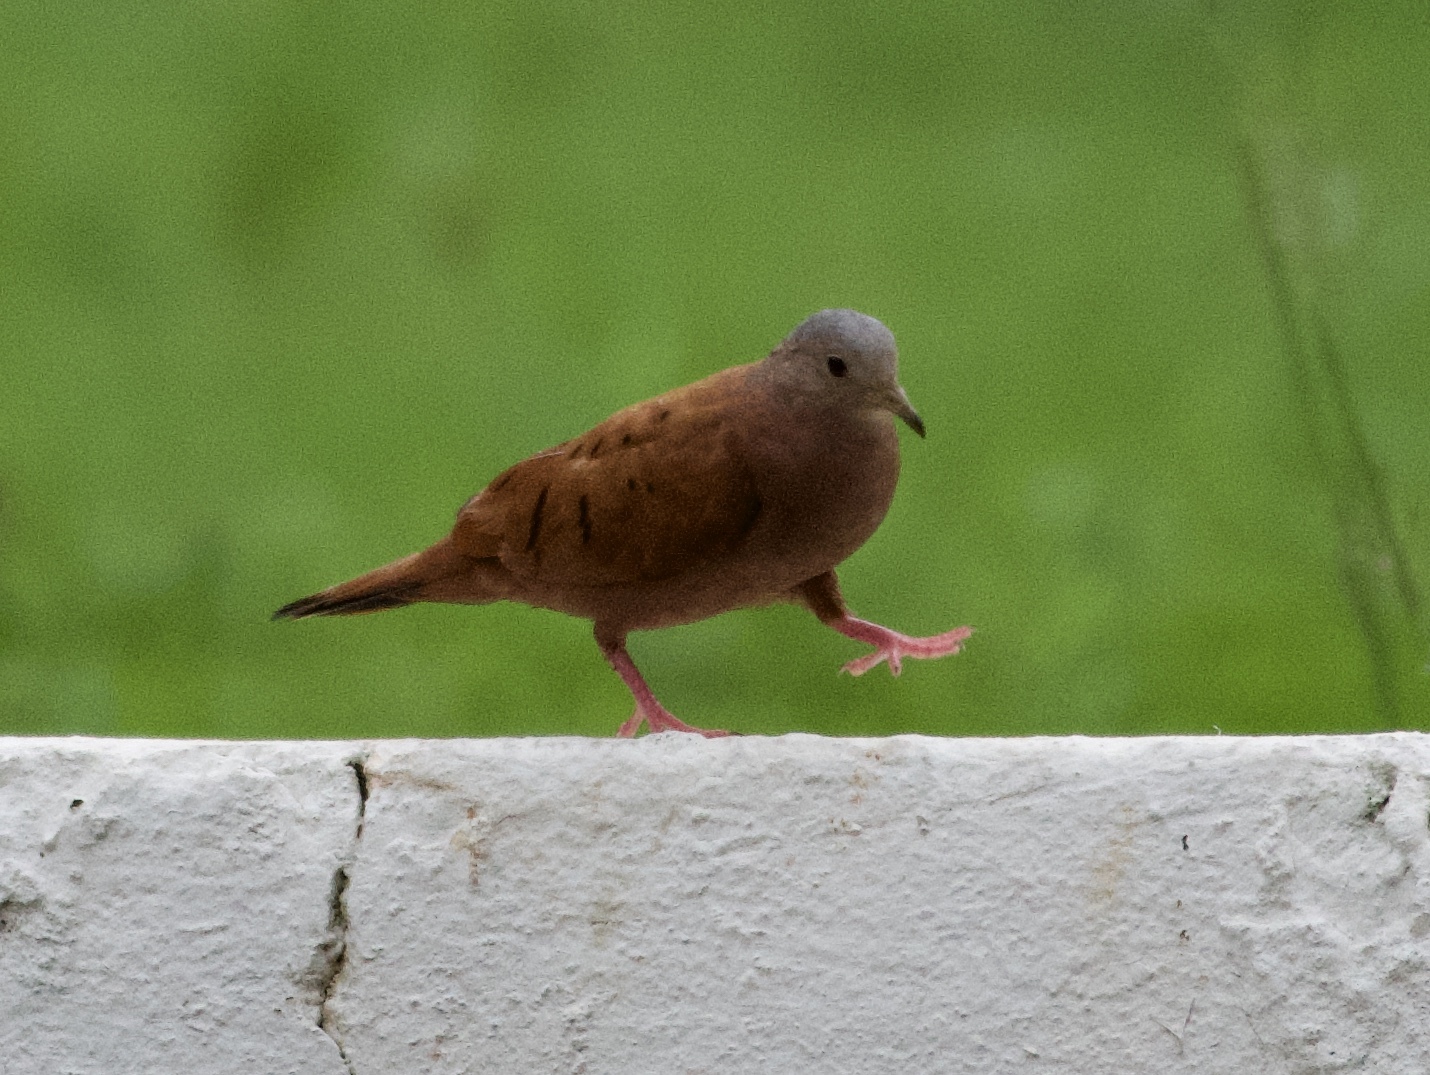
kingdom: Animalia
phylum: Chordata
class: Aves
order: Columbiformes
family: Columbidae
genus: Columbina
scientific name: Columbina talpacoti
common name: Ruddy ground dove
